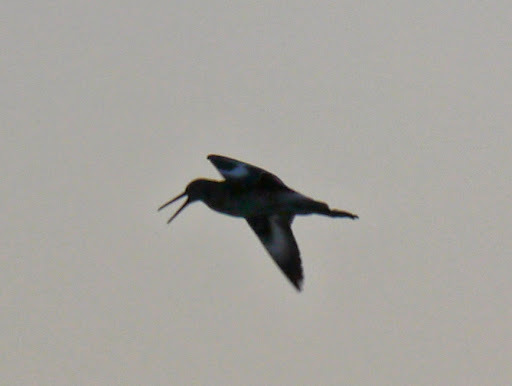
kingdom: Animalia
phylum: Chordata
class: Aves
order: Charadriiformes
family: Scolopacidae
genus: Tringa
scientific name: Tringa semipalmata
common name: Willet
